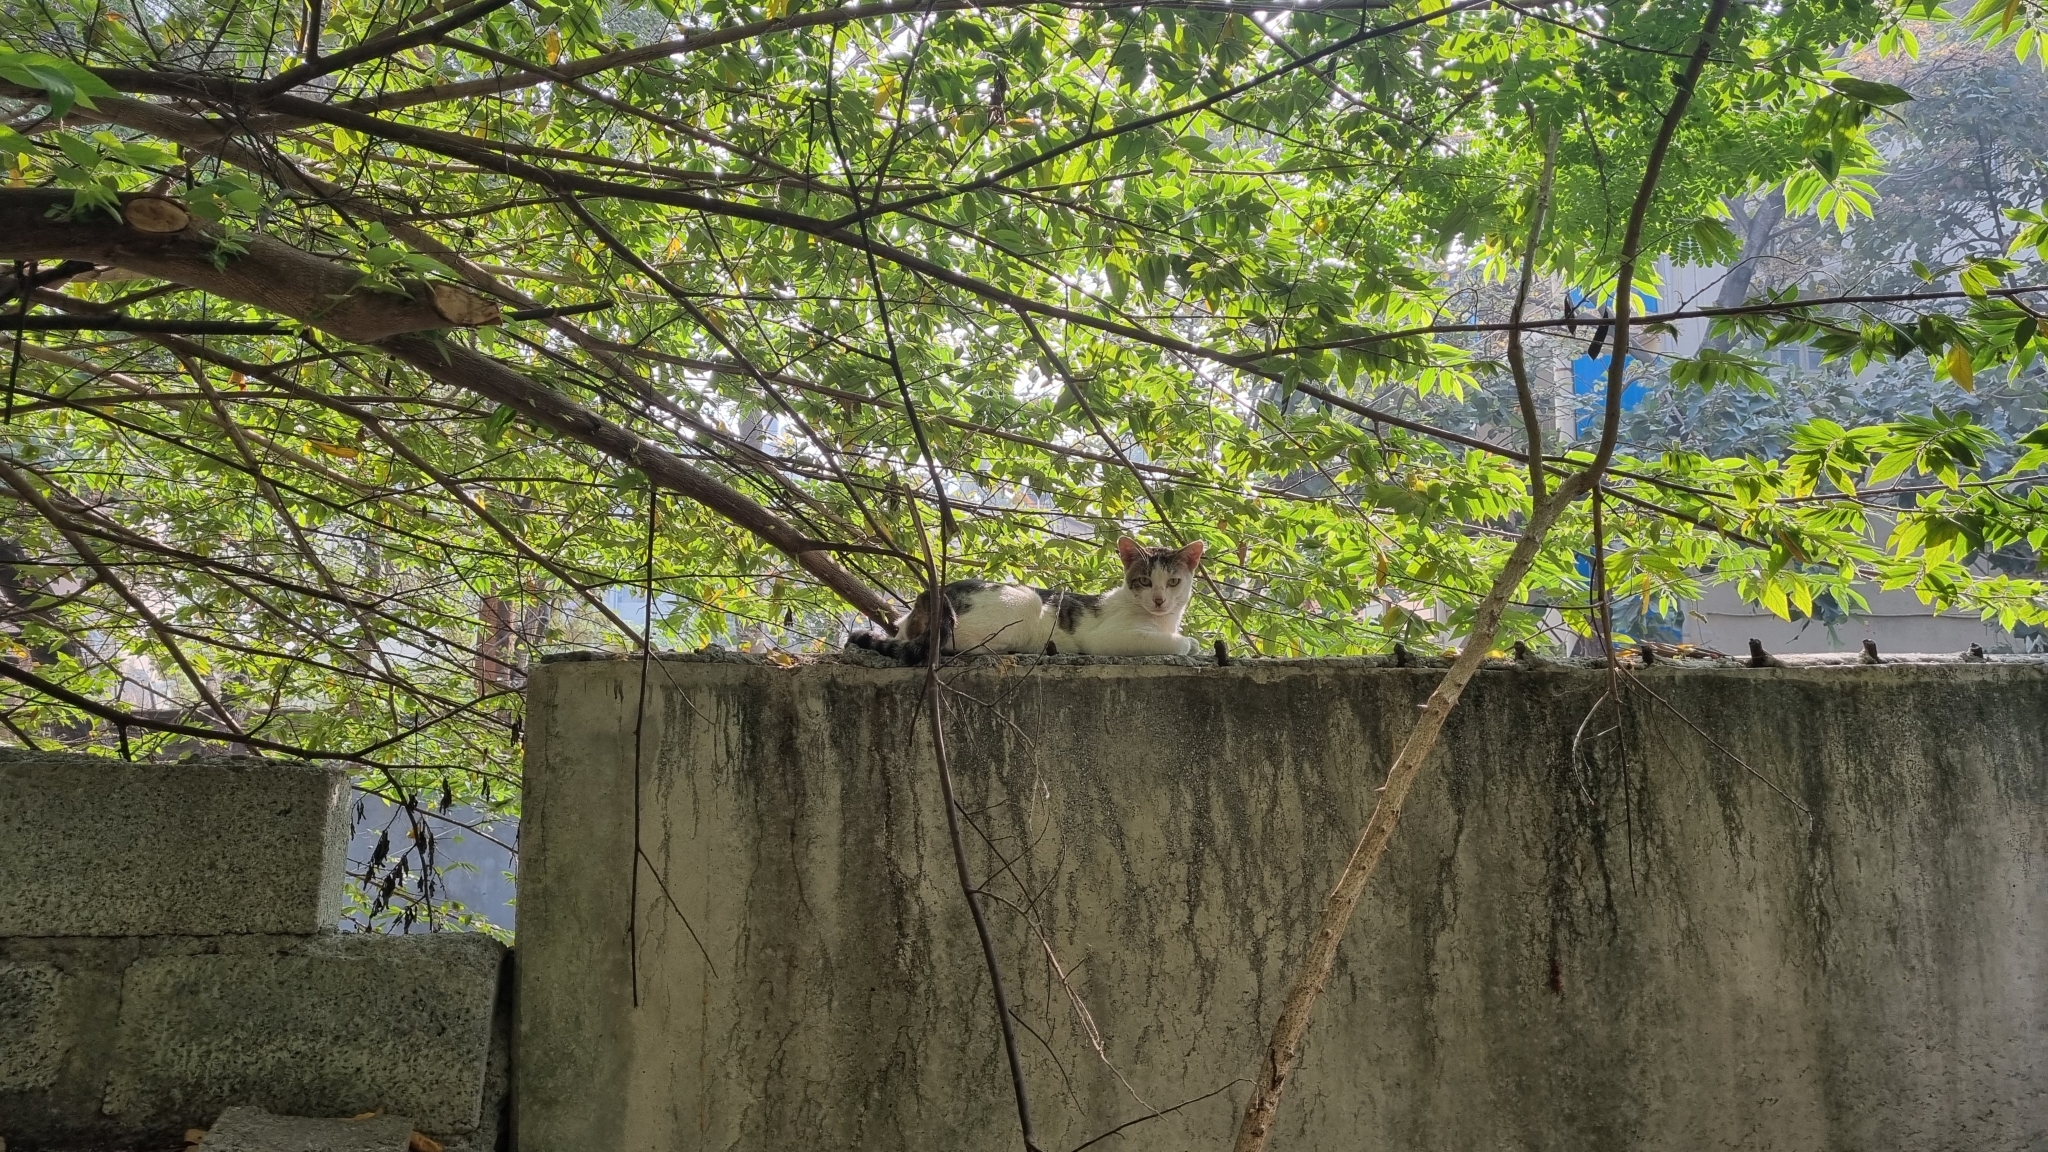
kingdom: Animalia
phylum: Chordata
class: Mammalia
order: Carnivora
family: Felidae
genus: Felis
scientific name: Felis catus
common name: Domestic cat
